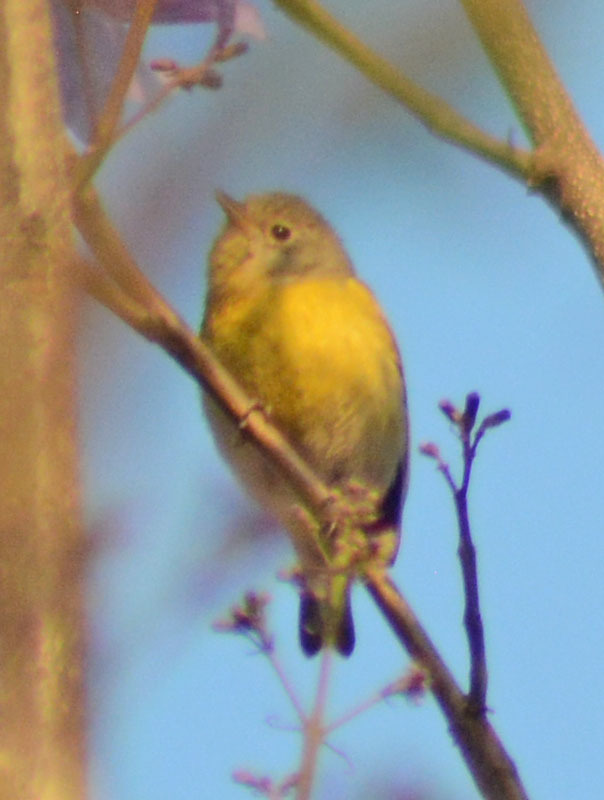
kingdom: Animalia
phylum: Chordata
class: Aves
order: Passeriformes
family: Parulidae
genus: Leiothlypis
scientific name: Leiothlypis ruficapilla
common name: Nashville warbler
